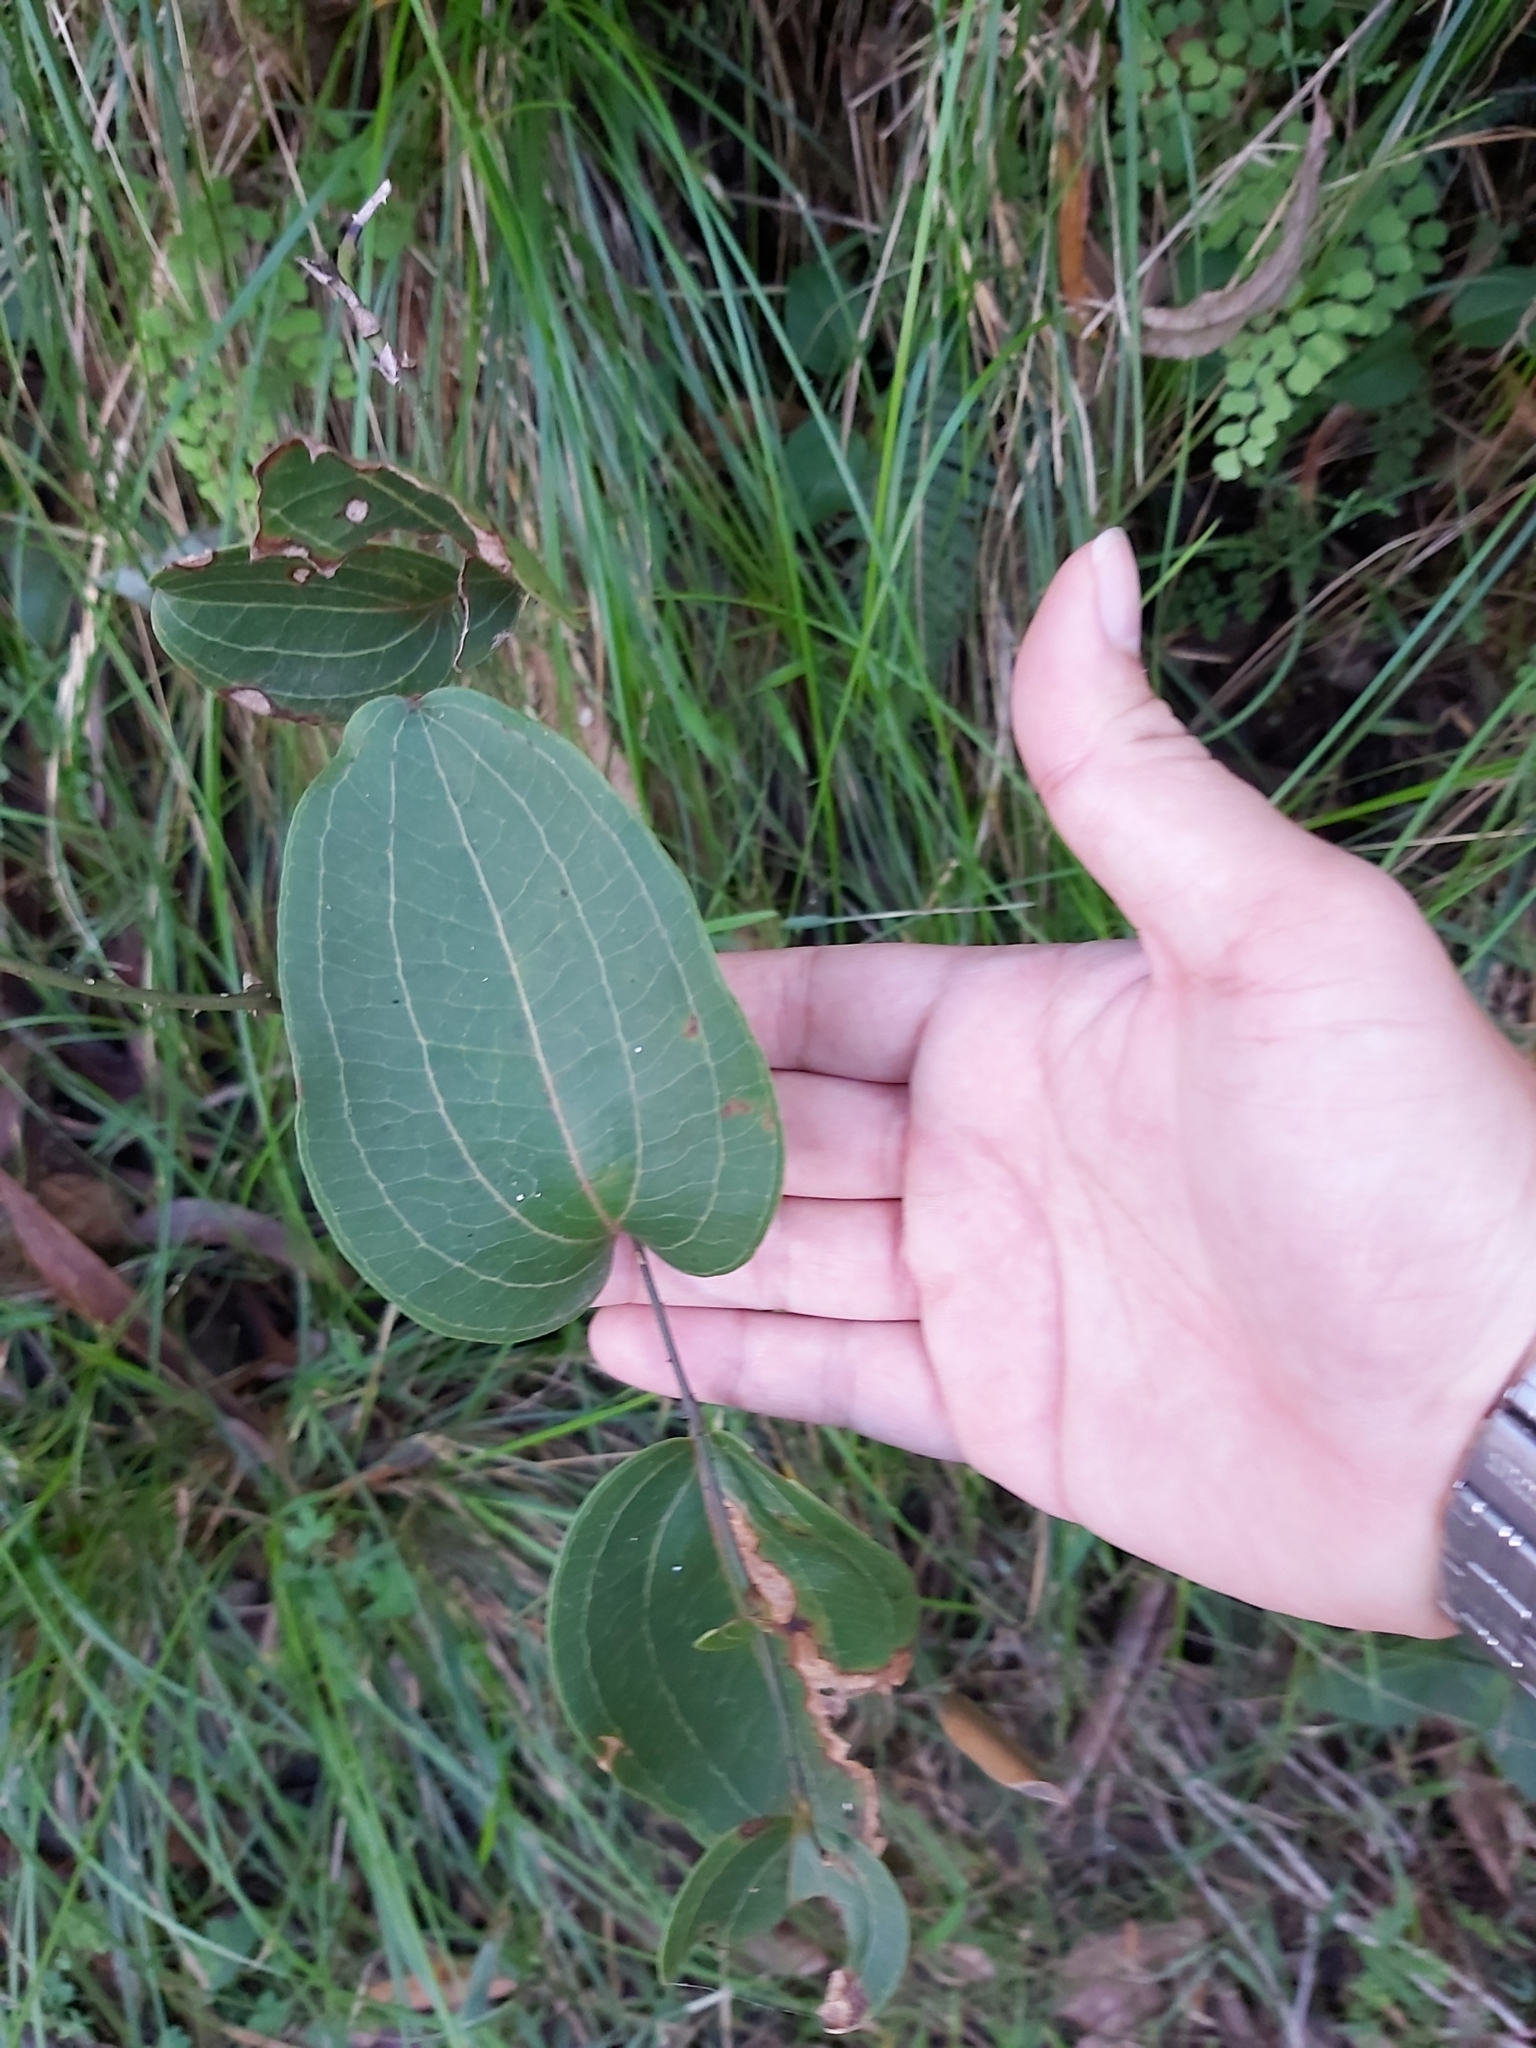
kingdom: Plantae
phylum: Tracheophyta
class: Liliopsida
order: Liliales
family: Smilacaceae
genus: Smilax
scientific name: Smilax australis
